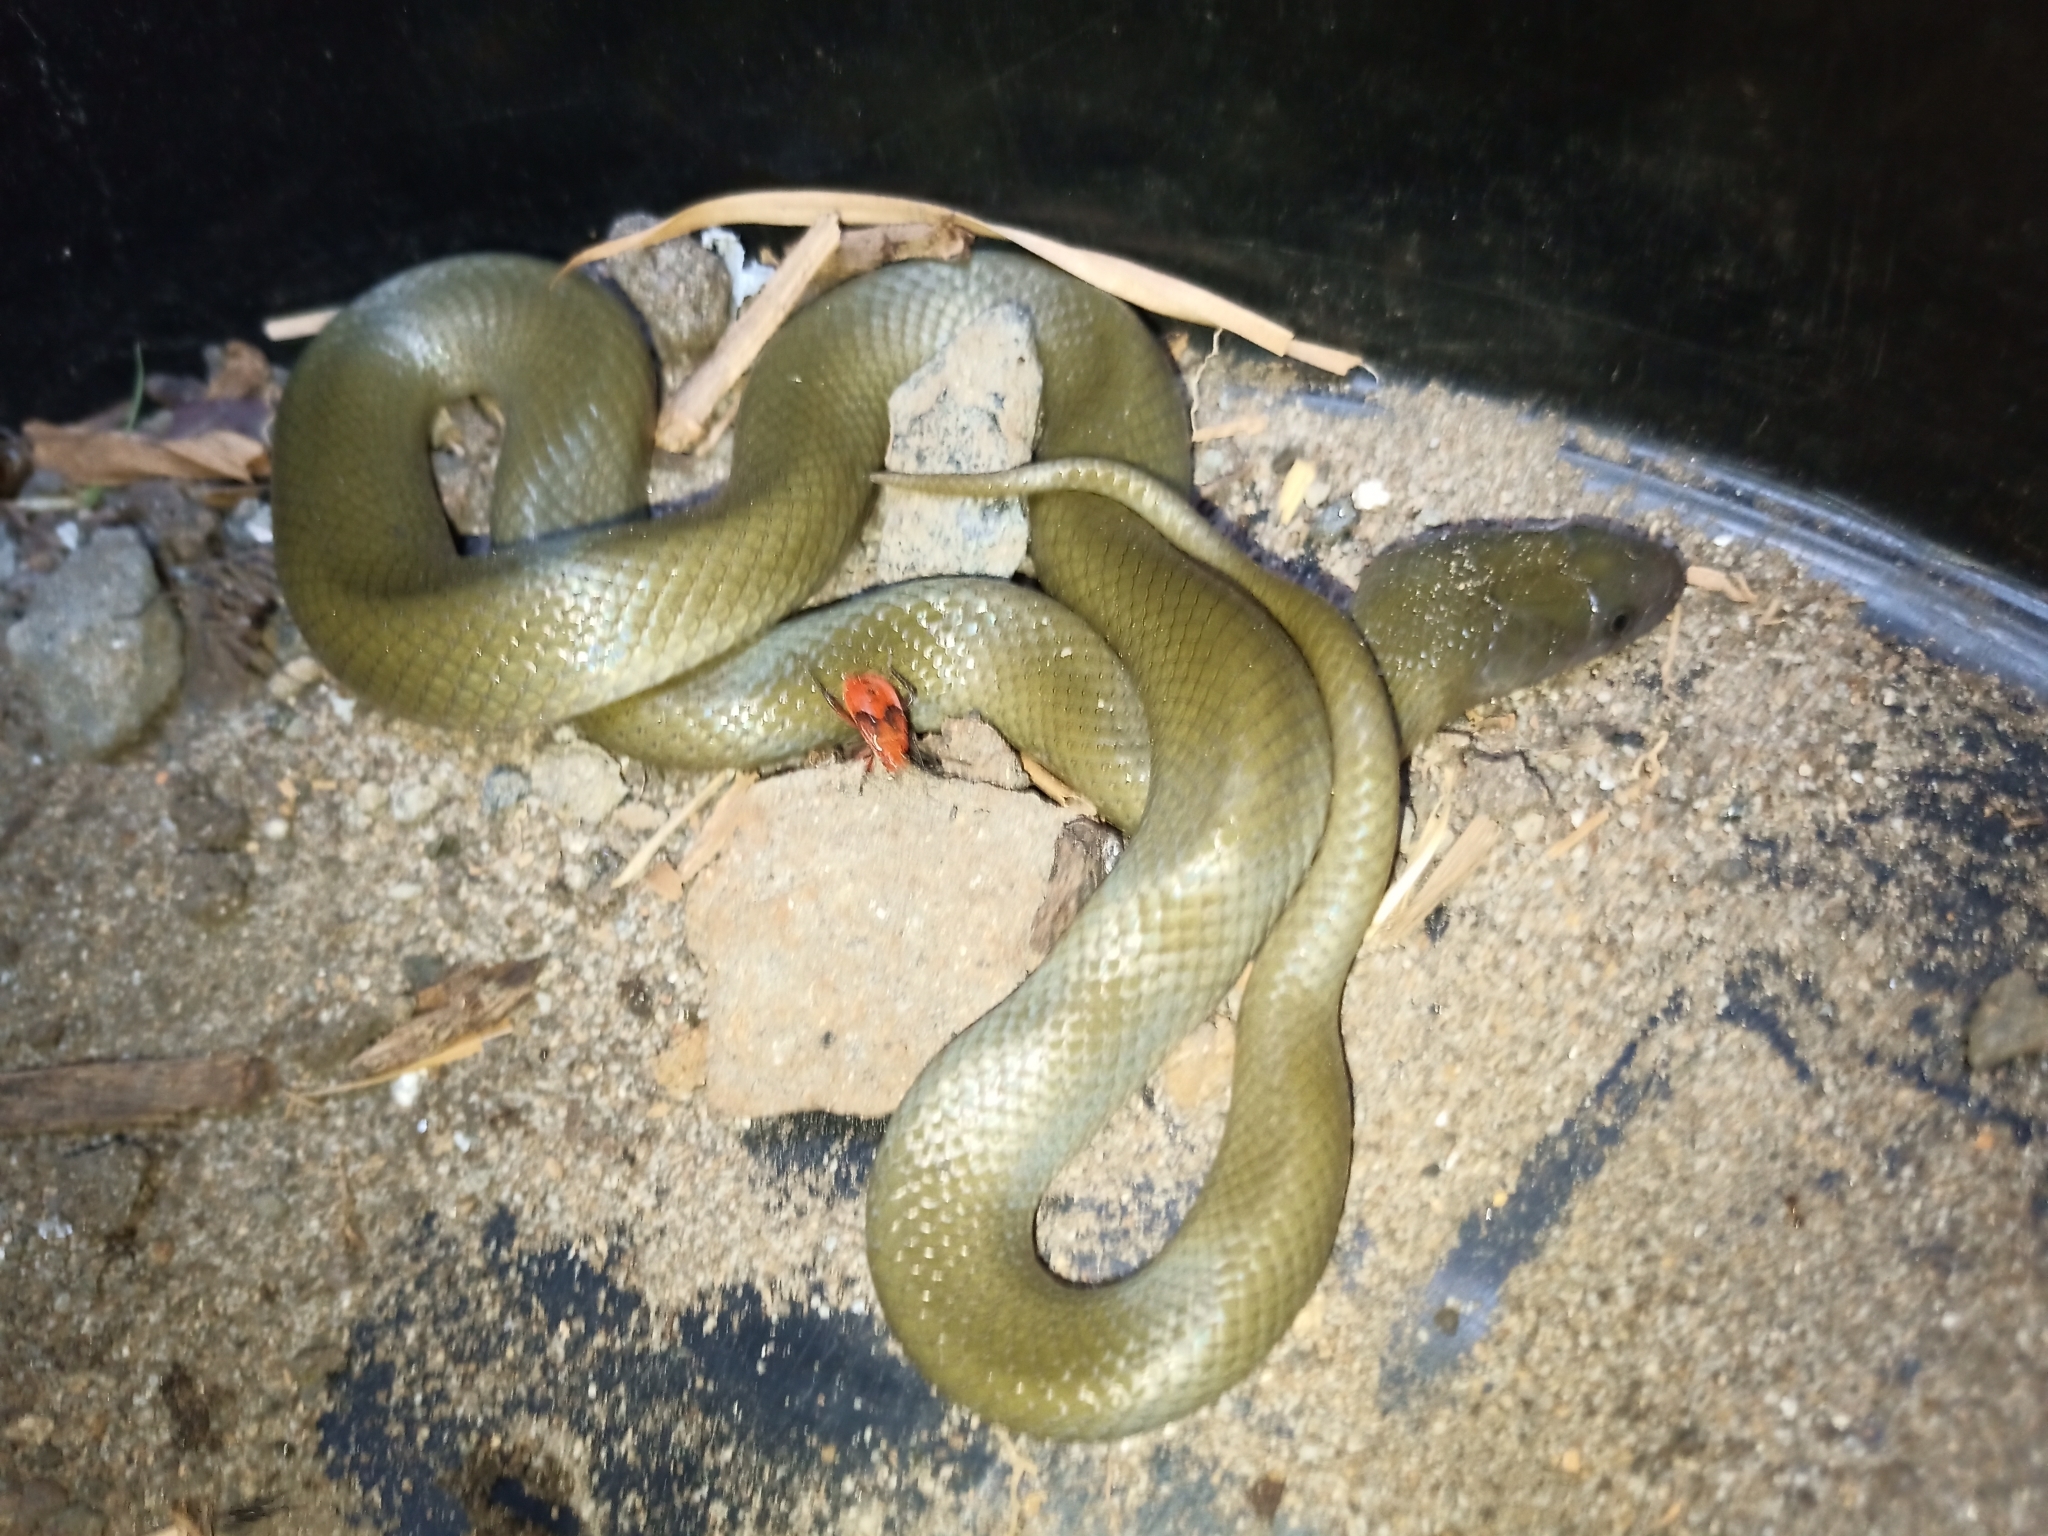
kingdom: Animalia
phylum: Chordata
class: Squamata
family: Lamprophiidae
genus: Lycodonomorphus
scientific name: Lycodonomorphus inornatus
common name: Black house snake
